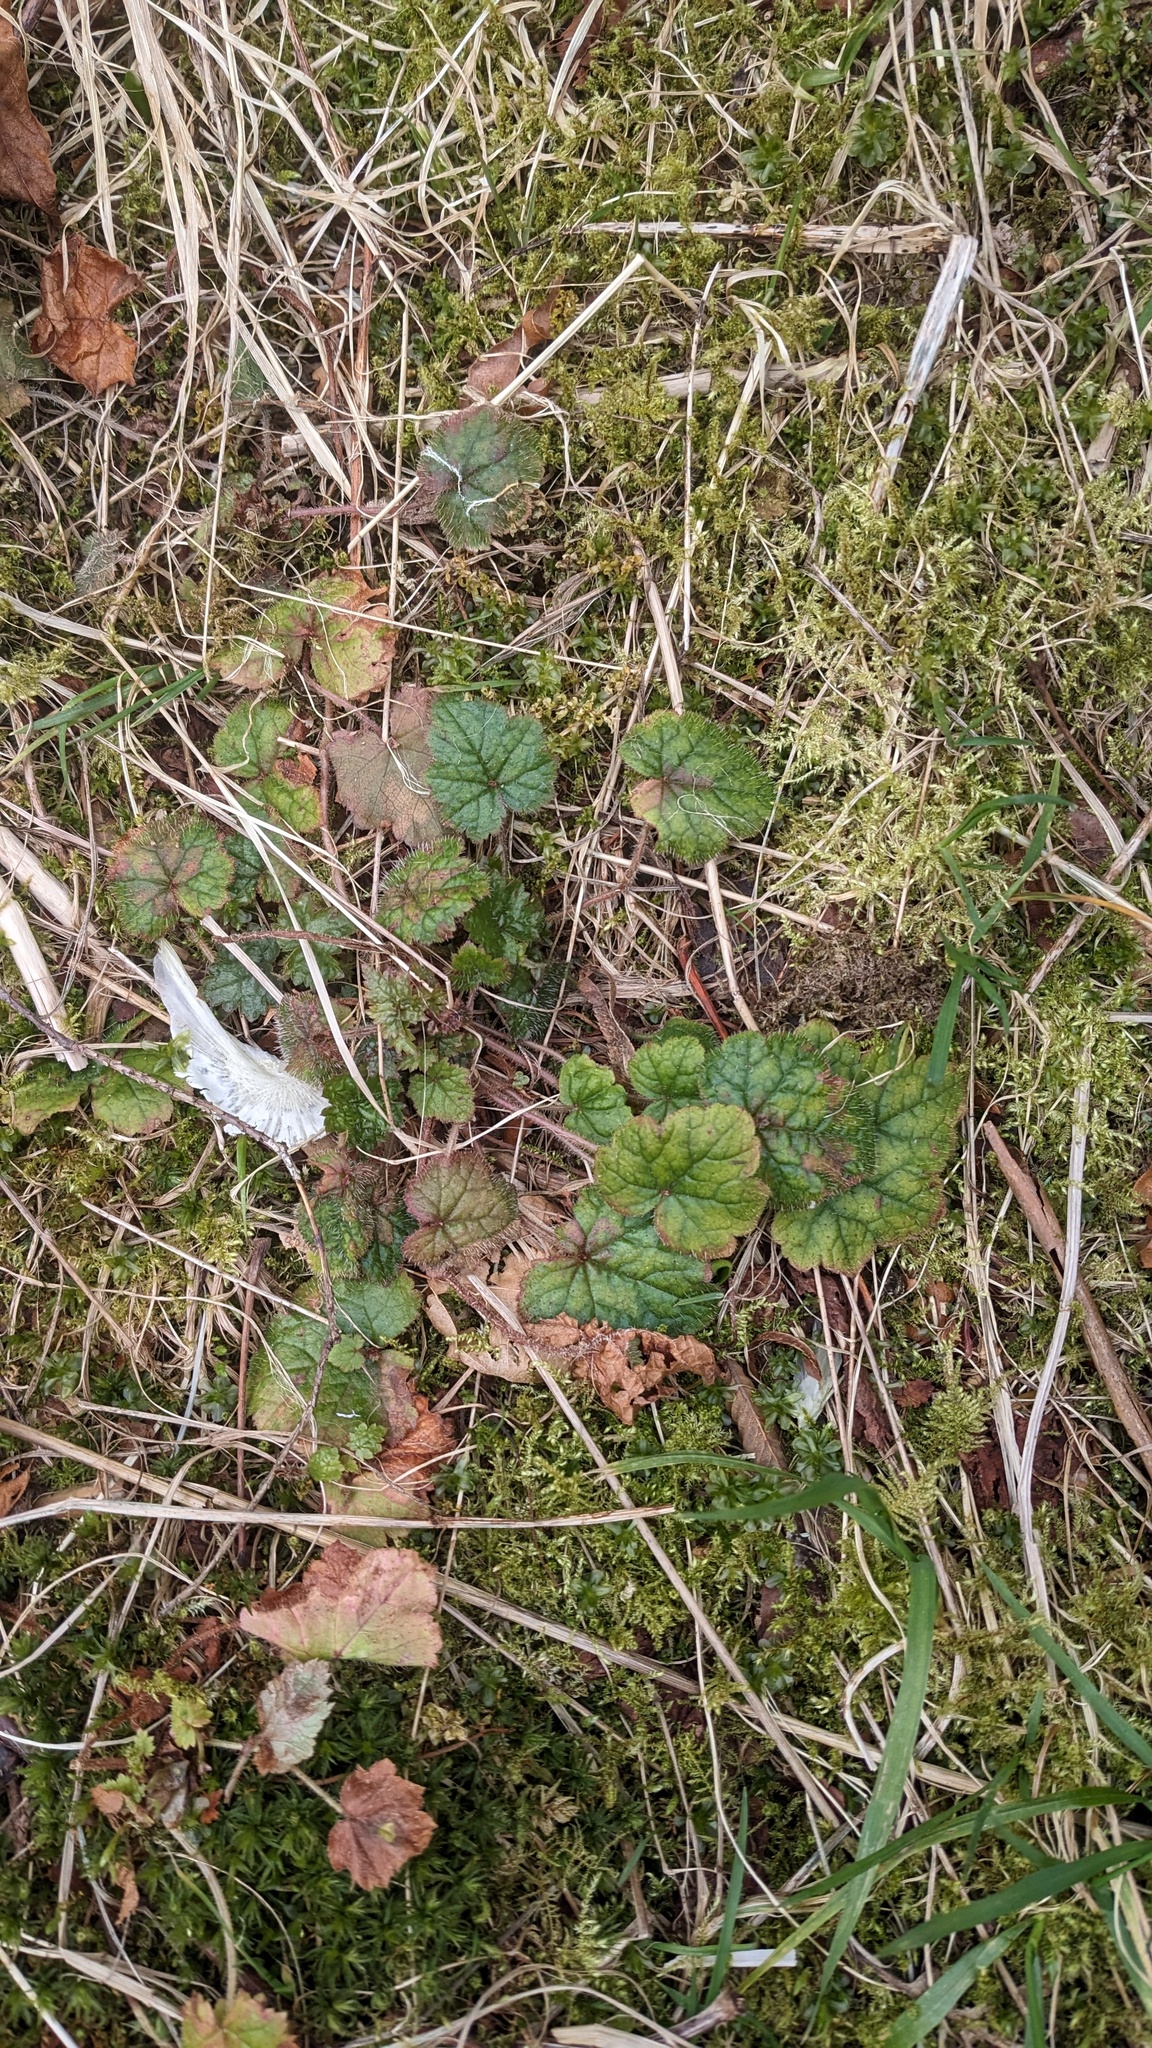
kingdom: Plantae
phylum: Tracheophyta
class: Magnoliopsida
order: Saxifragales
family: Saxifragaceae
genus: Tolmiea
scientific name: Tolmiea menziesii
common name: Pick-a-back-plant
